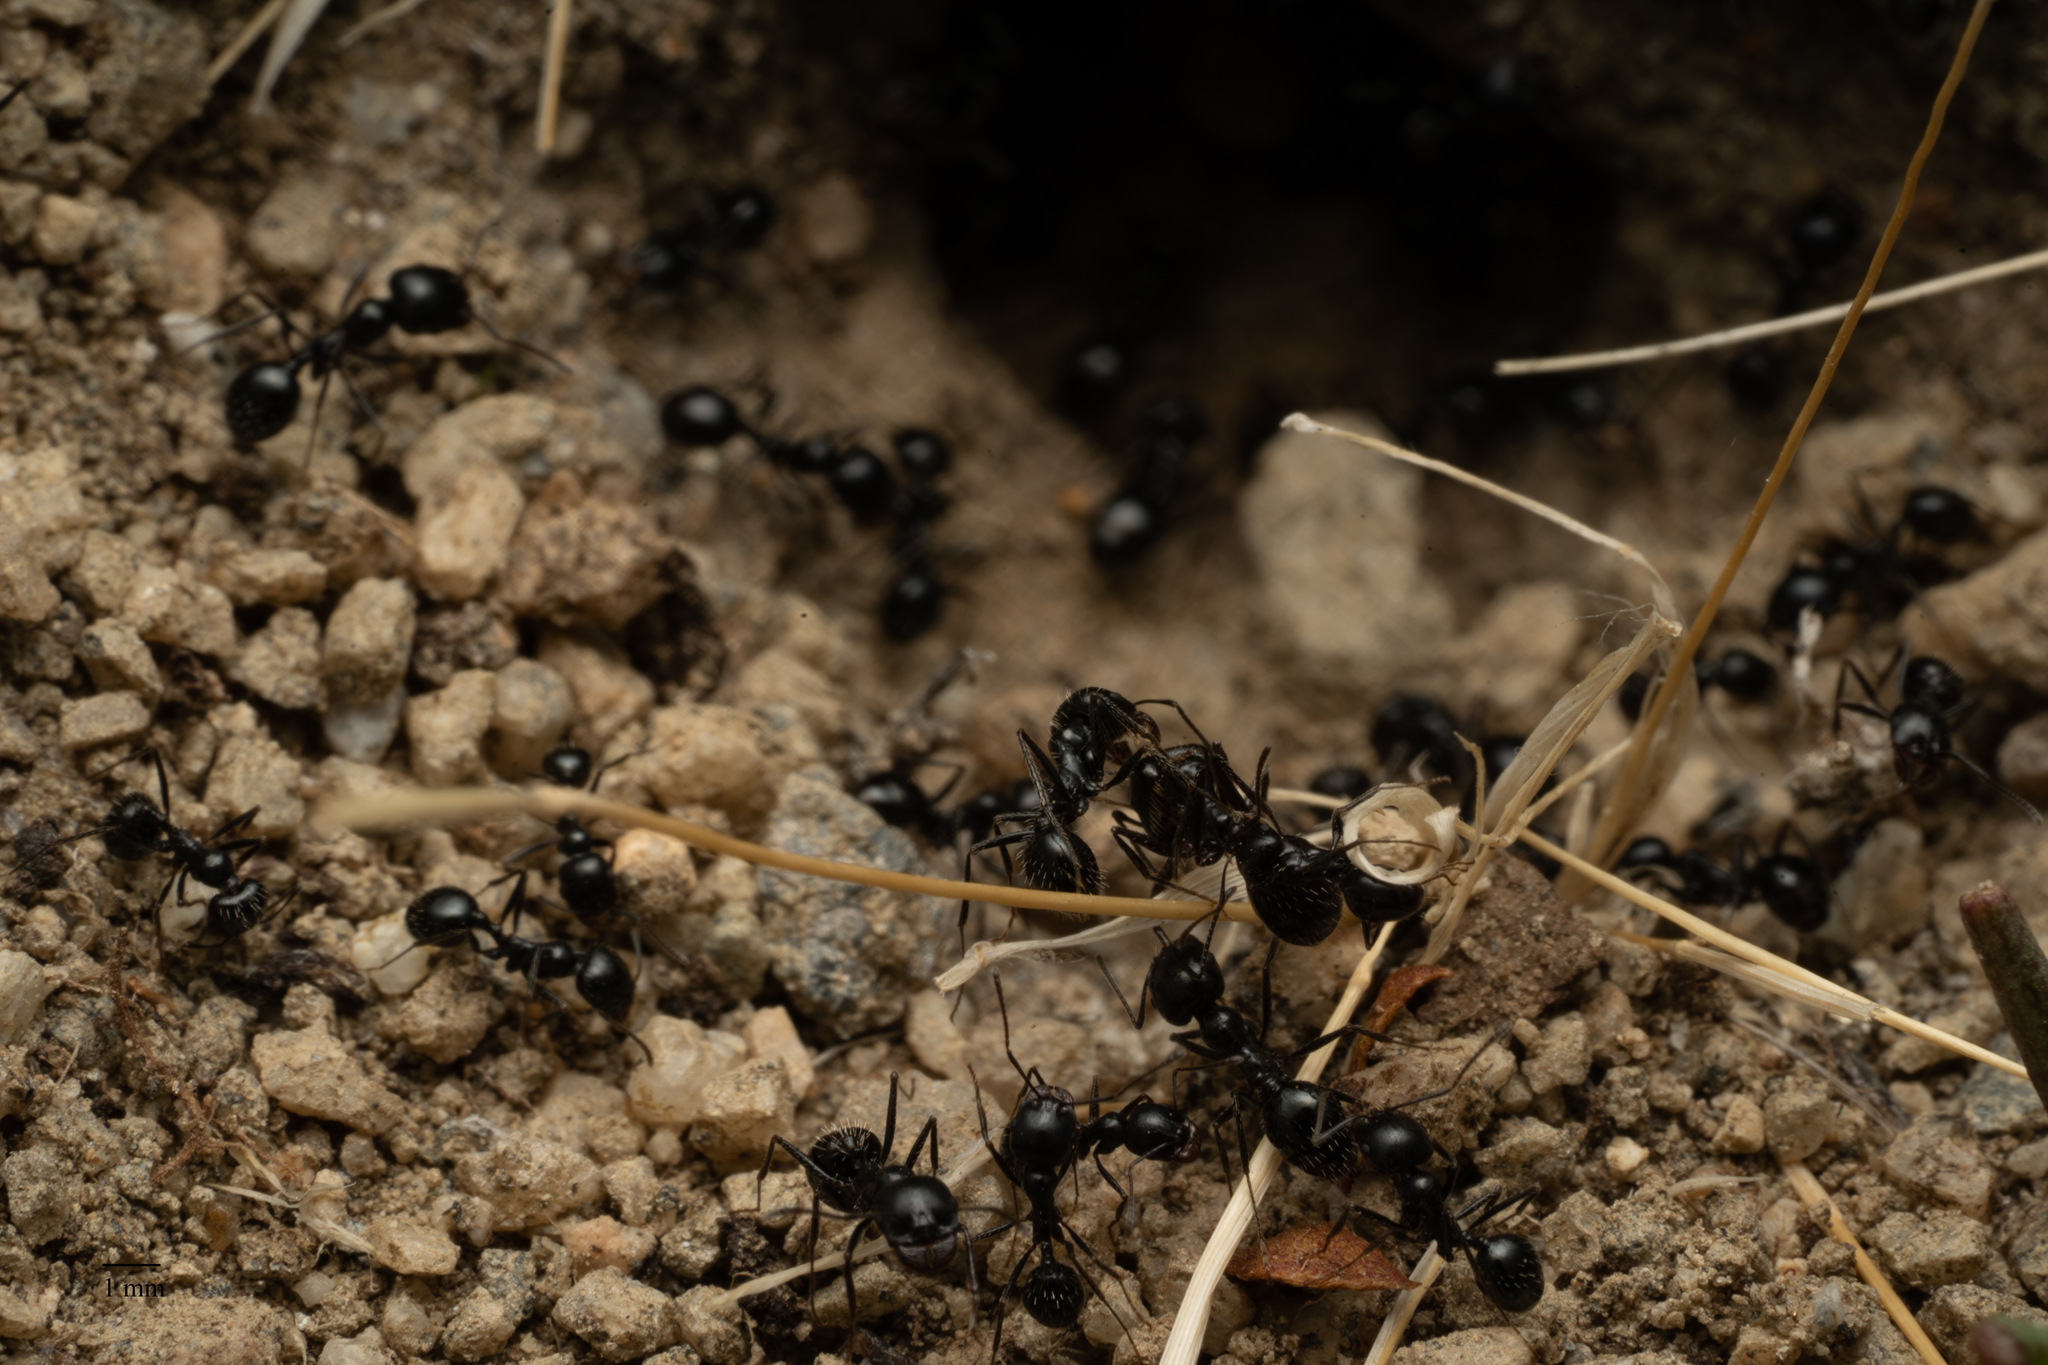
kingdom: Animalia
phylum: Arthropoda
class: Insecta
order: Hymenoptera
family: Formicidae
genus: Messor
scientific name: Messor pergandei
